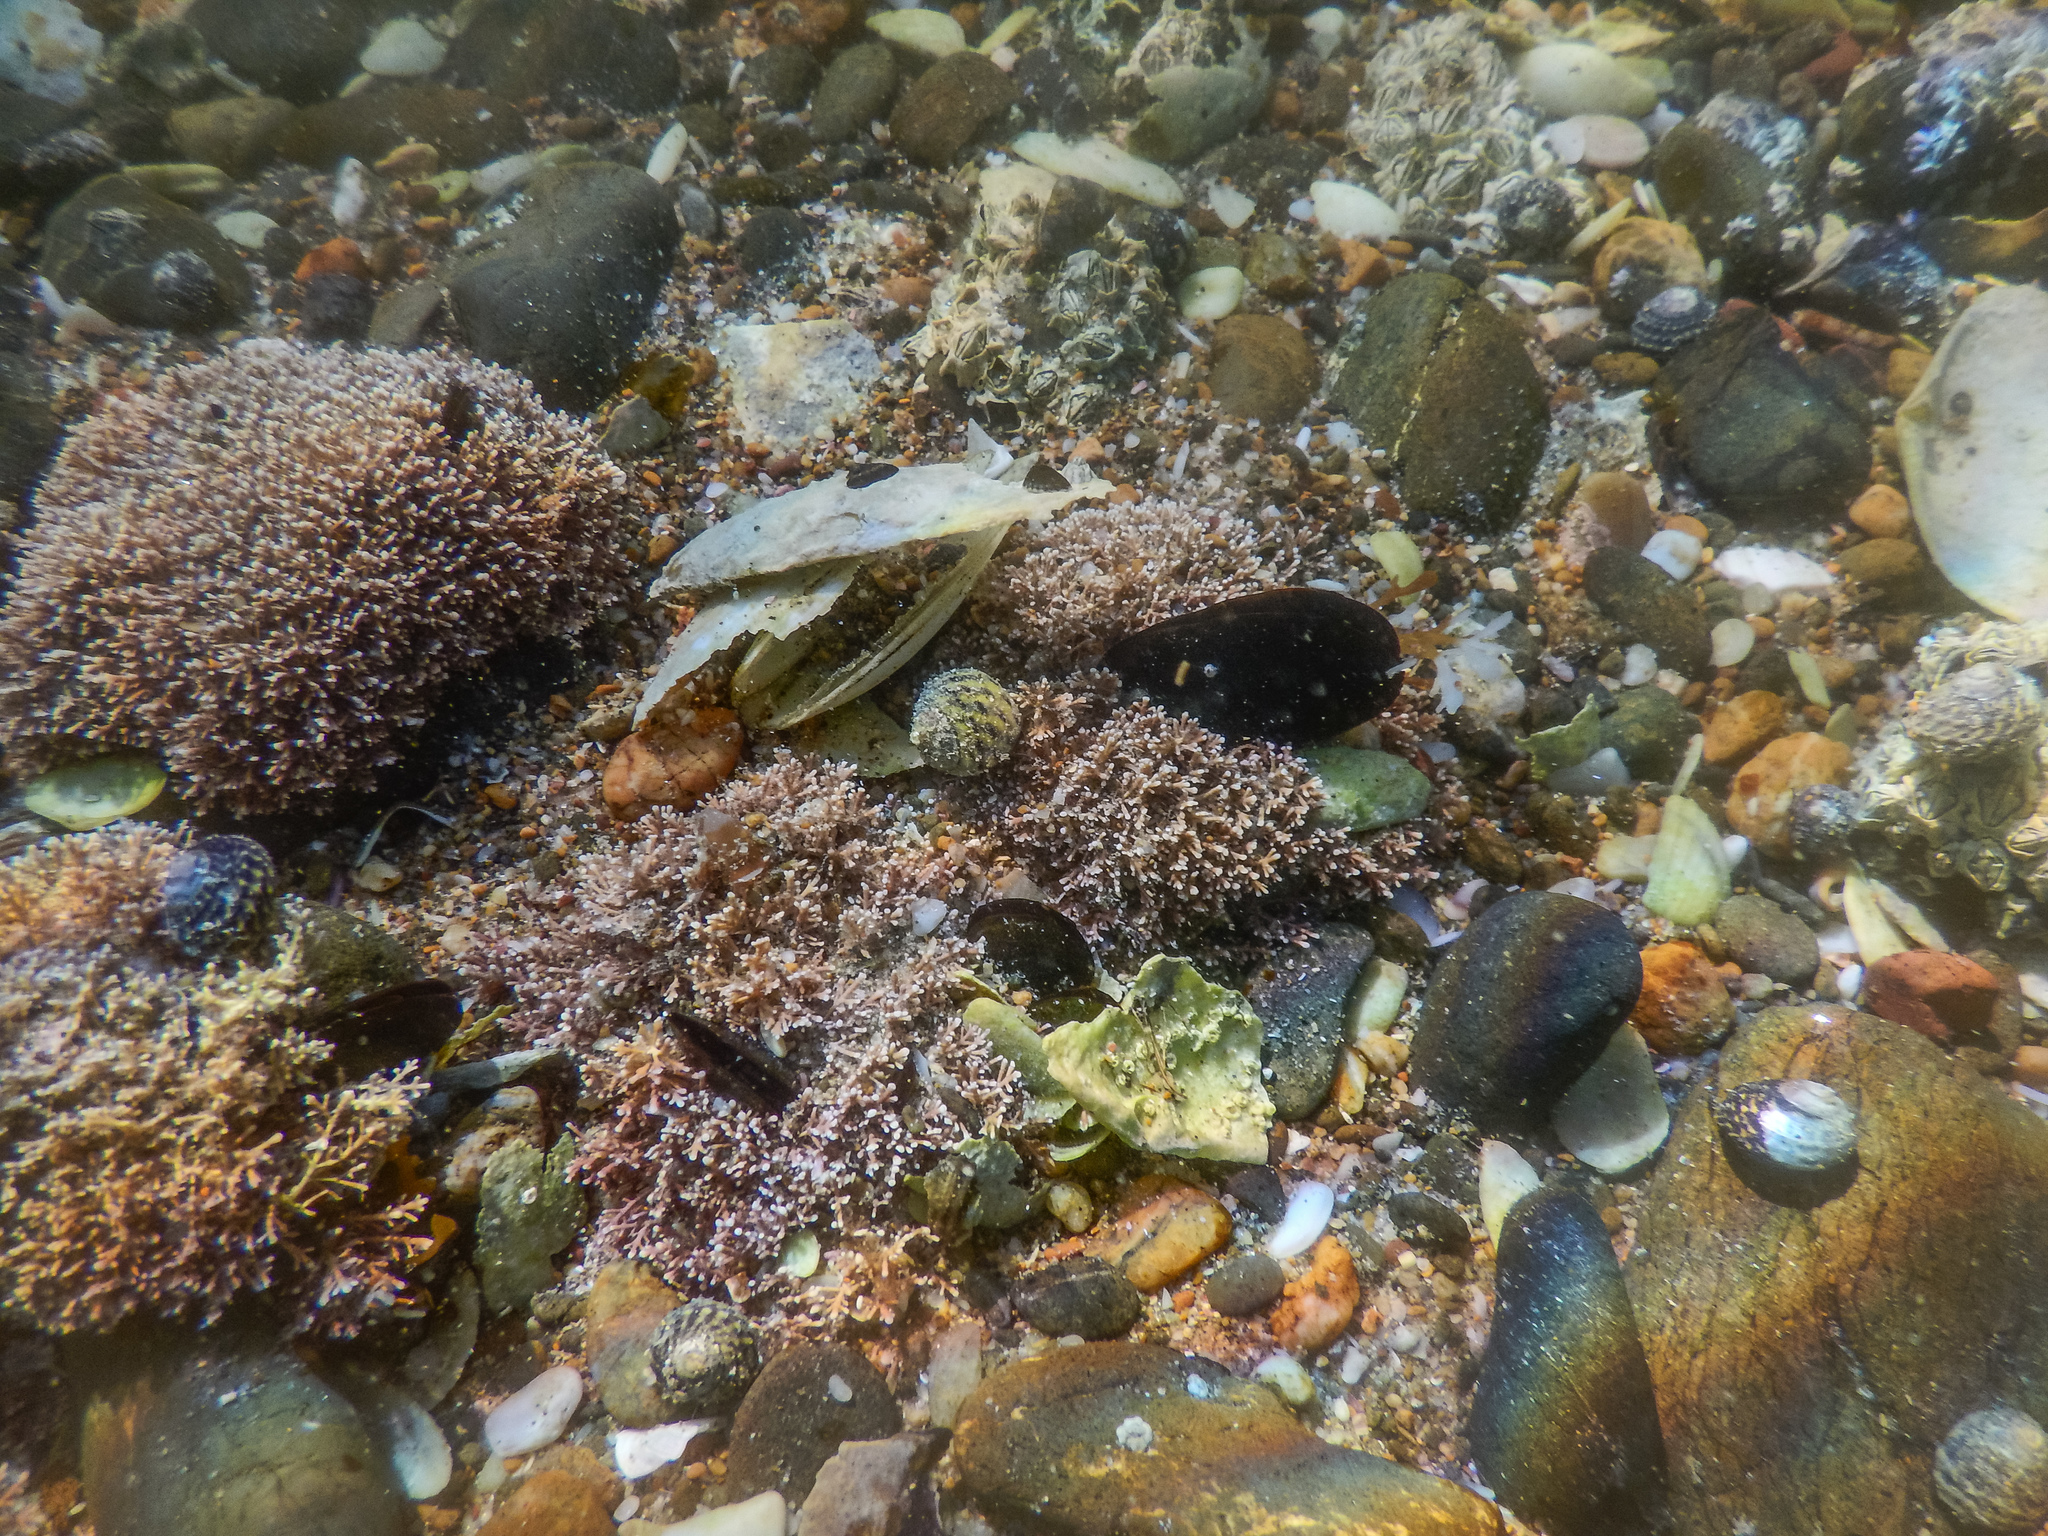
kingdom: Plantae
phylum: Rhodophyta
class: Florideophyceae
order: Corallinales
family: Corallinaceae
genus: Corallina
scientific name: Corallina officinalis
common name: Coral weed
